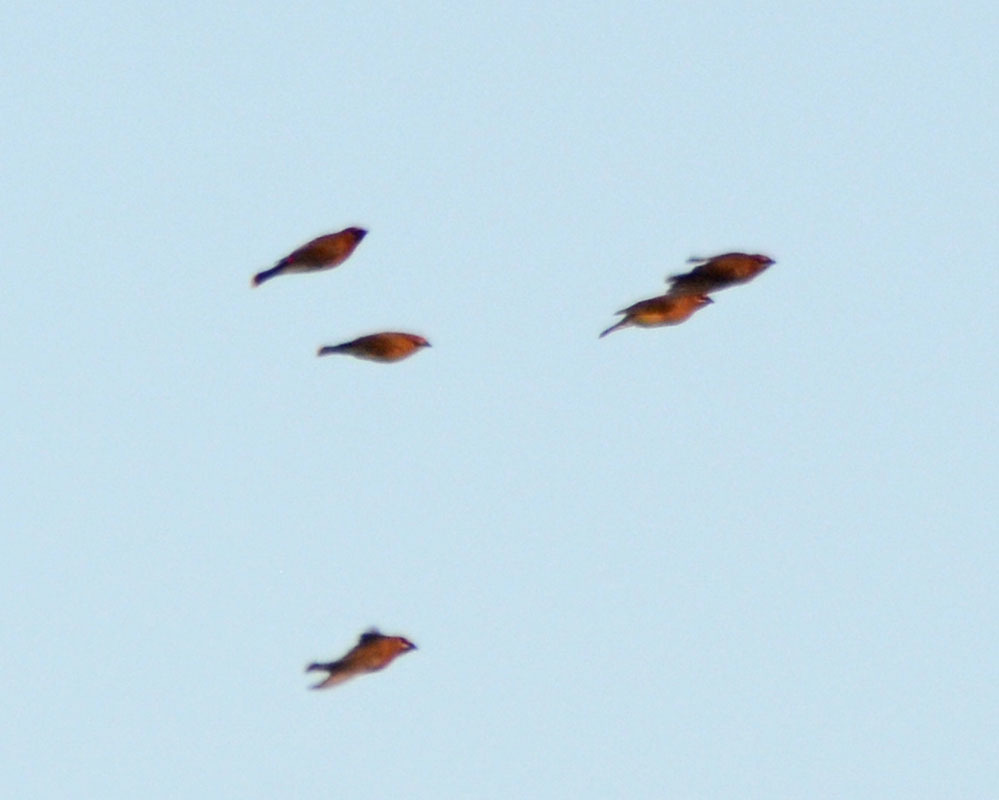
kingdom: Animalia
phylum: Chordata
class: Aves
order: Passeriformes
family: Bombycillidae
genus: Bombycilla
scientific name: Bombycilla cedrorum
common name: Cedar waxwing
